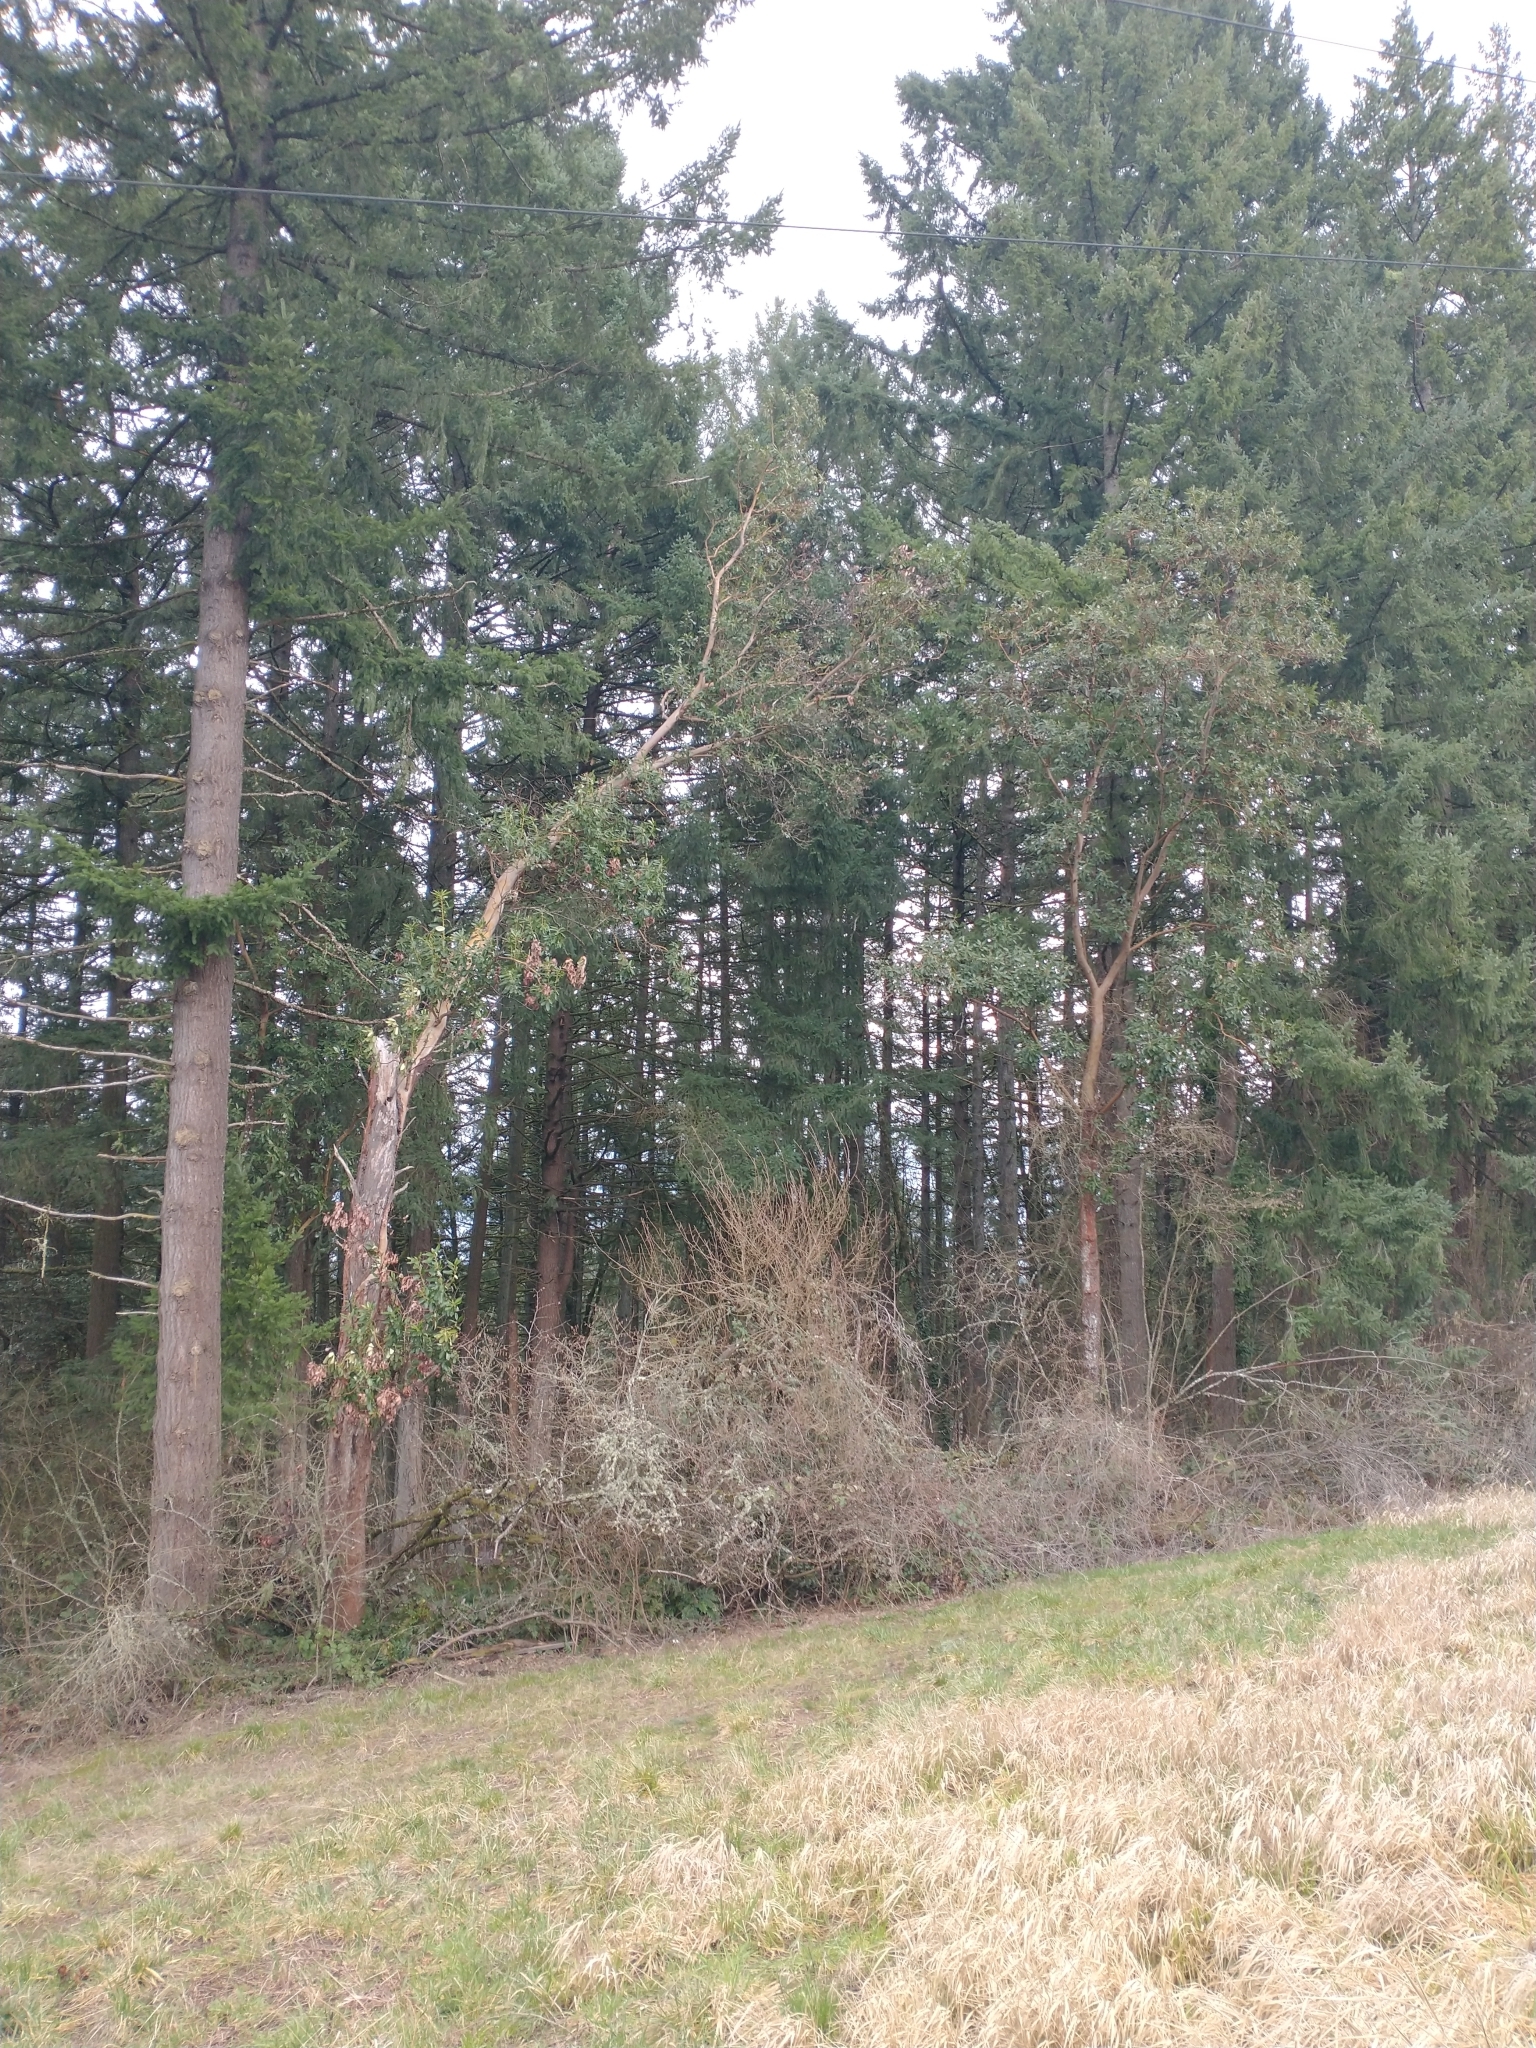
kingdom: Plantae
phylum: Tracheophyta
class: Magnoliopsida
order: Ericales
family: Ericaceae
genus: Arbutus
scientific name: Arbutus menziesii
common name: Pacific madrone
